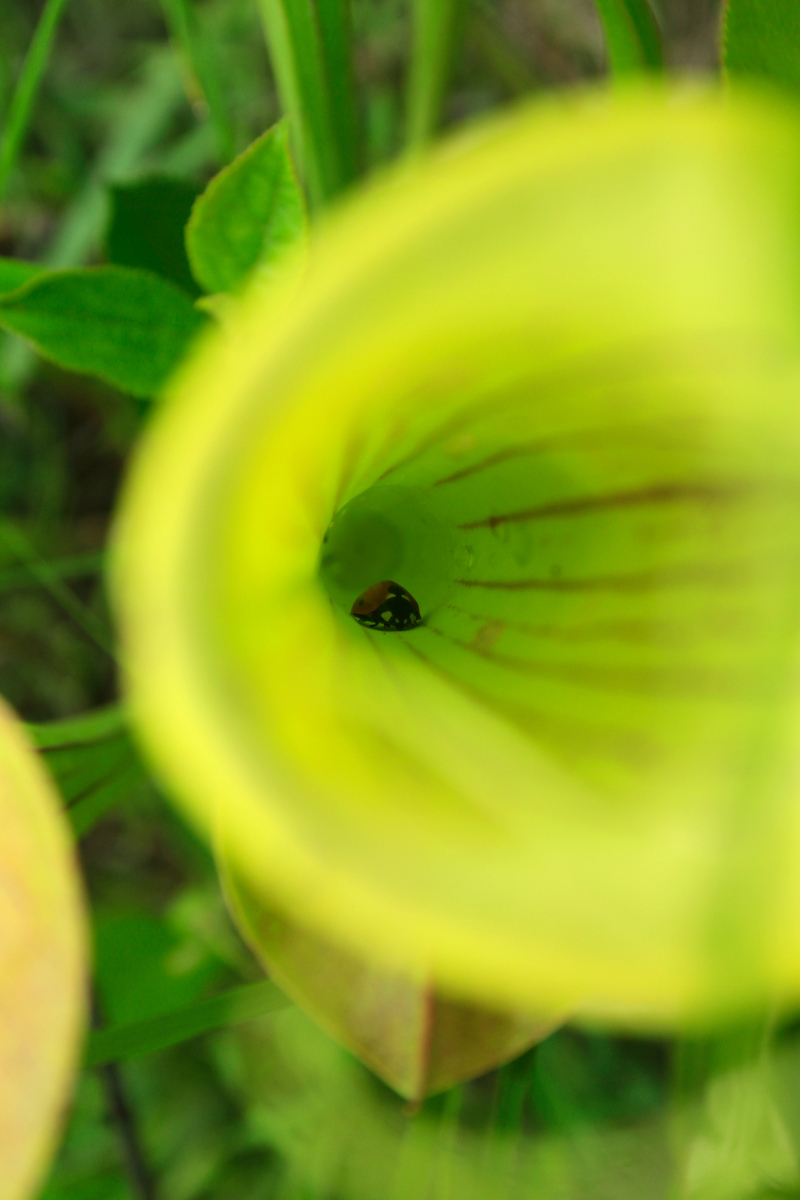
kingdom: Animalia
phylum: Arthropoda
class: Insecta
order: Coleoptera
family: Coccinellidae
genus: Coccinella
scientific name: Coccinella septempunctata
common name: Sevenspotted lady beetle
